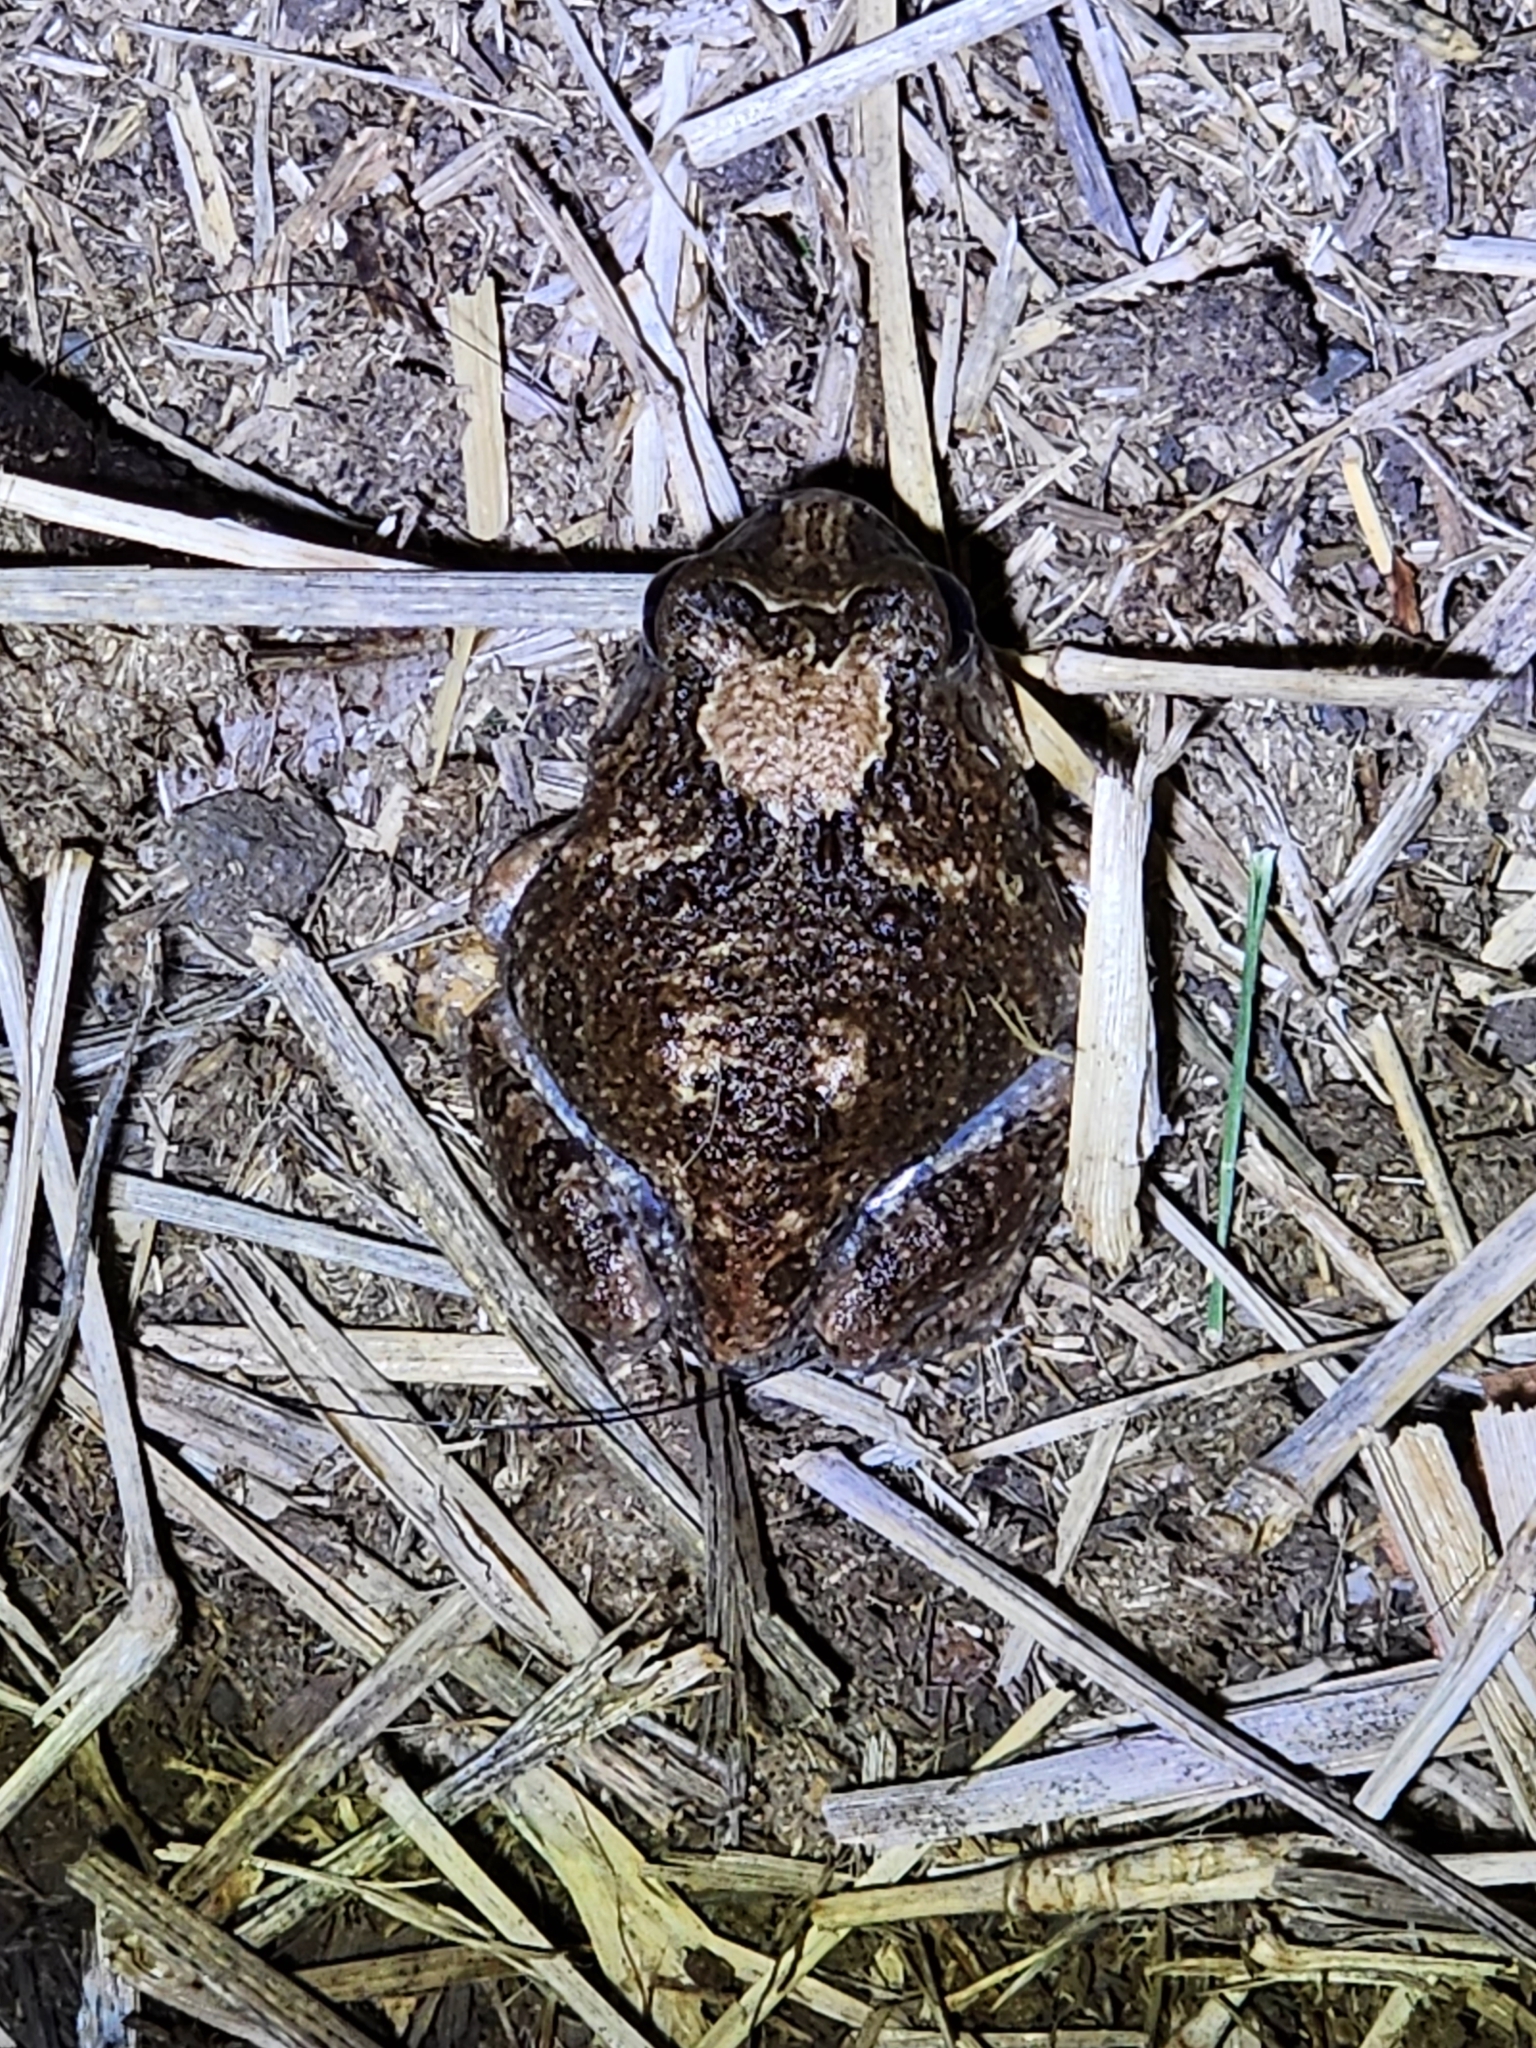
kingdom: Animalia
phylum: Chordata
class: Amphibia
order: Anura
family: Limnodynastidae
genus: Platyplectrum
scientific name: Platyplectrum ornatum
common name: Ornate burrowing frog
